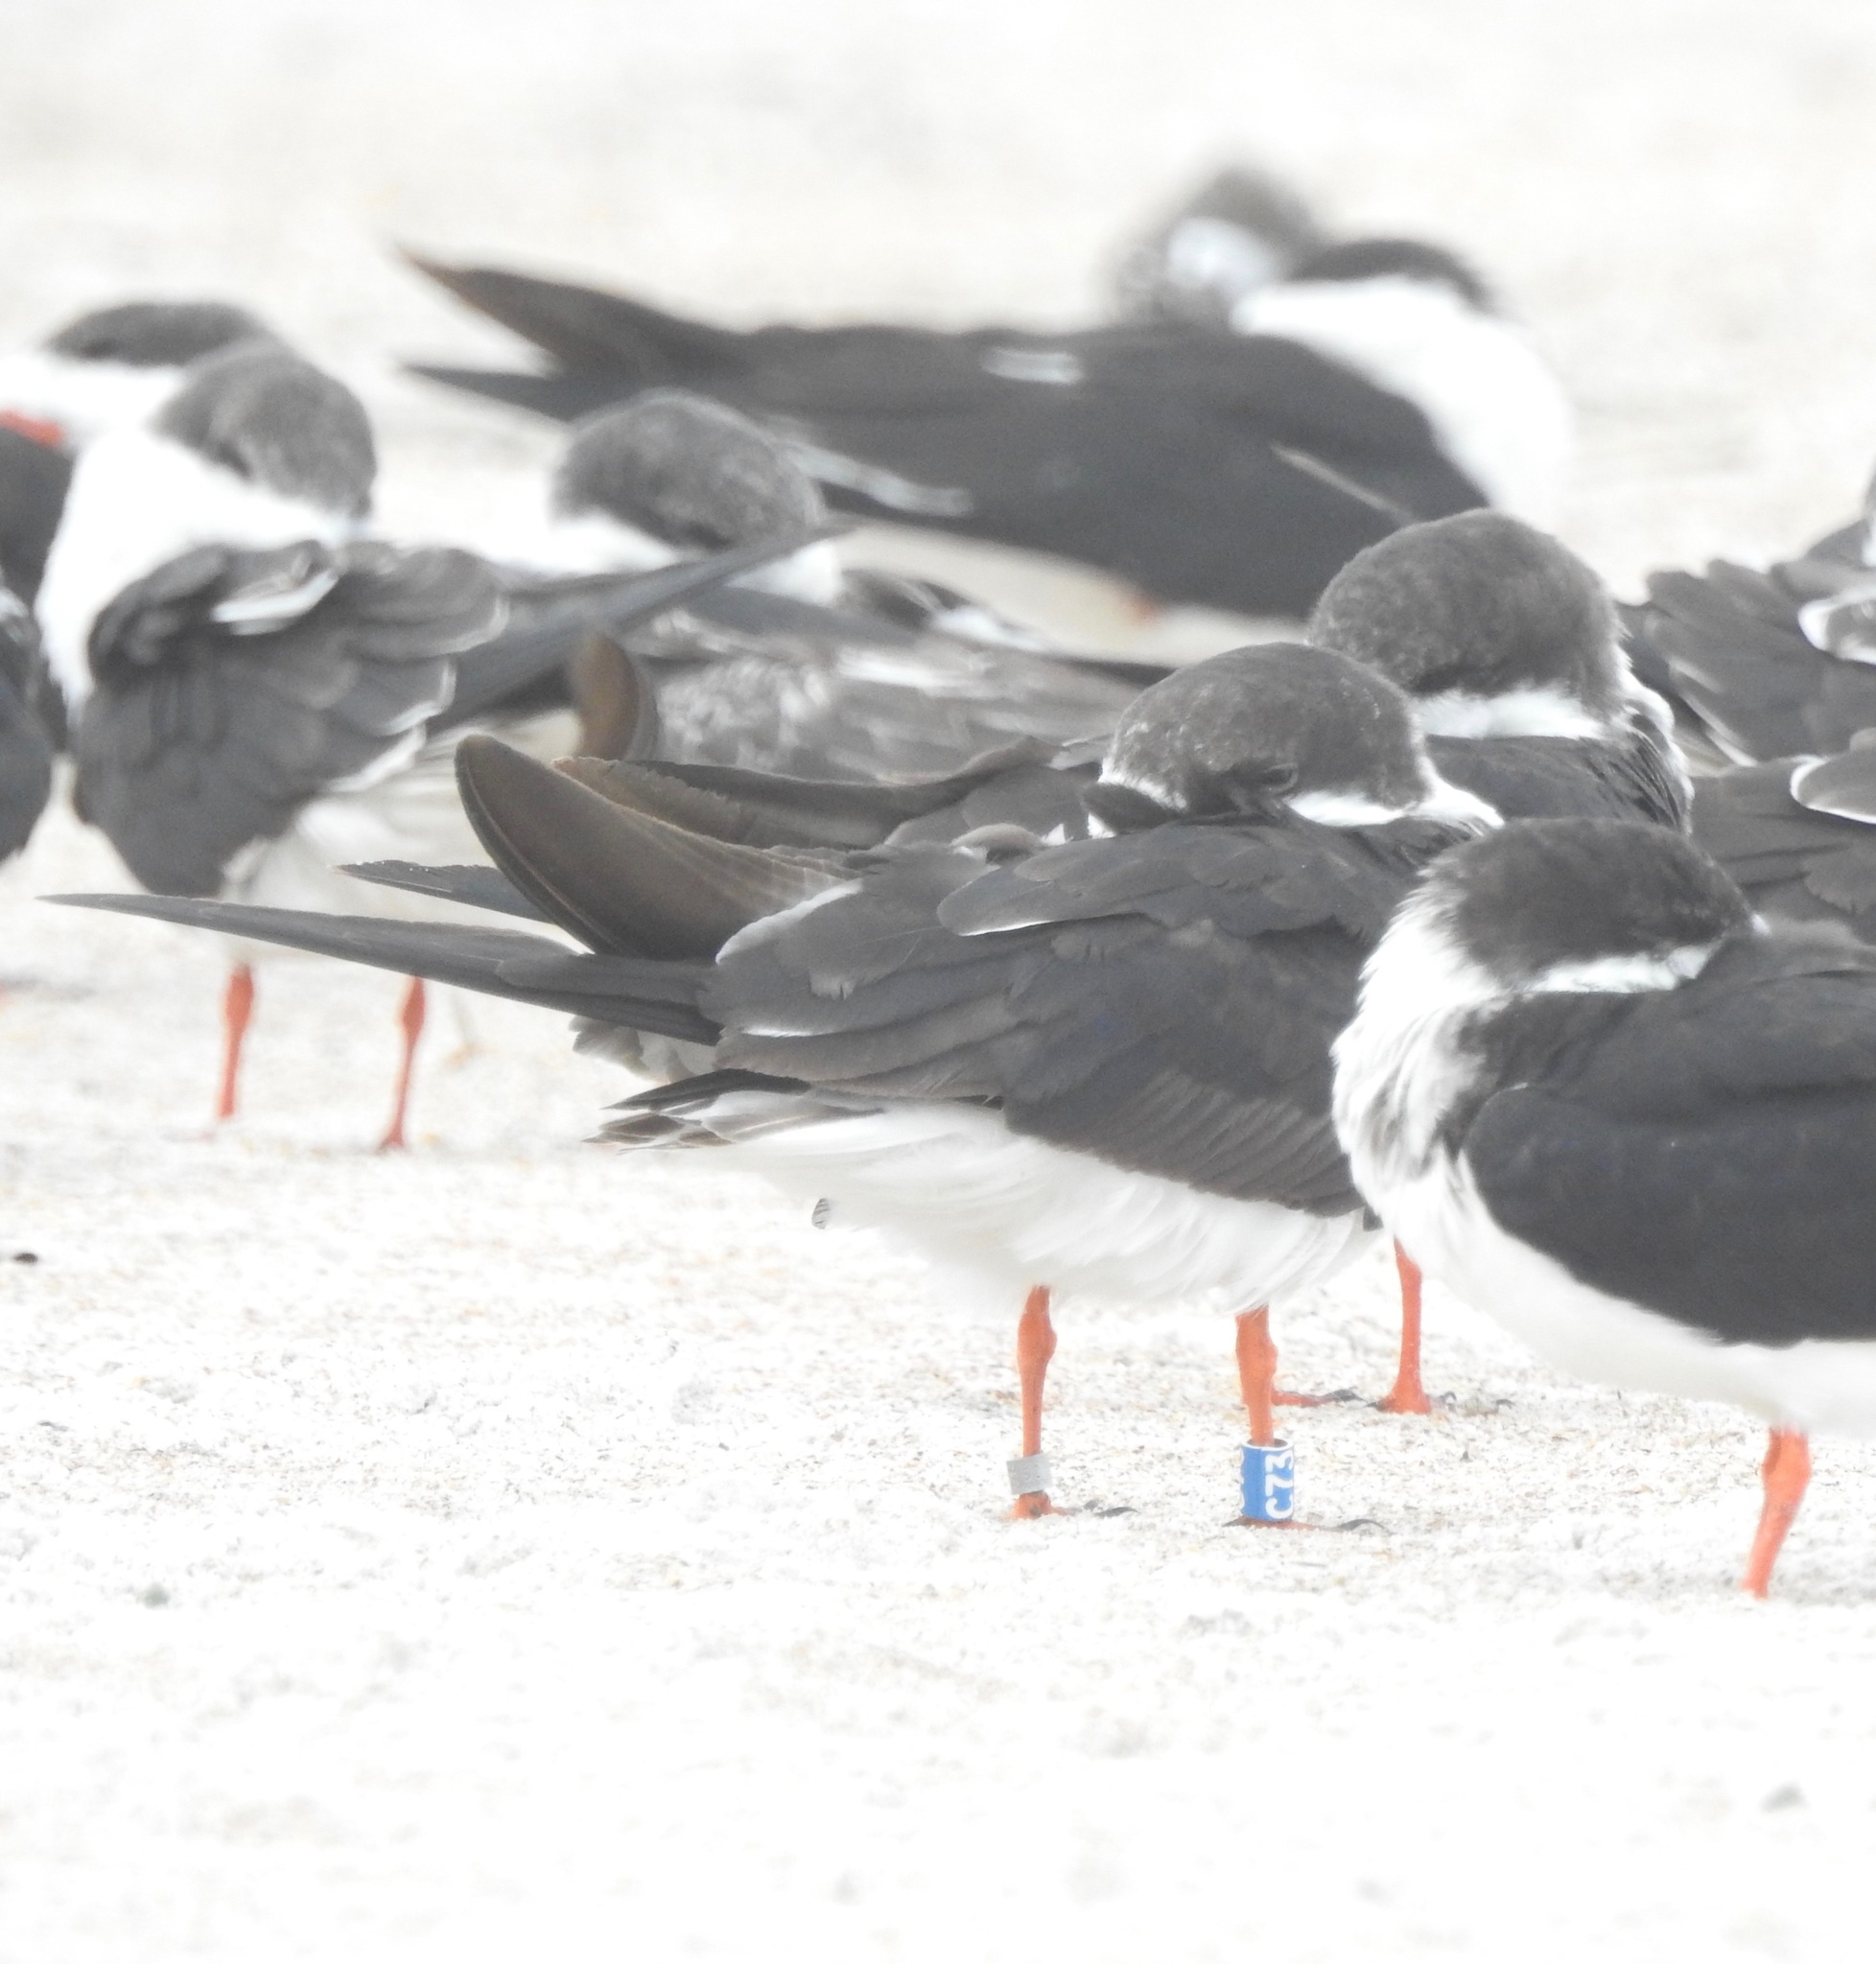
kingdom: Animalia
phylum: Chordata
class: Aves
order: Charadriiformes
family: Laridae
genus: Rynchops
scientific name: Rynchops niger
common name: Black skimmer
